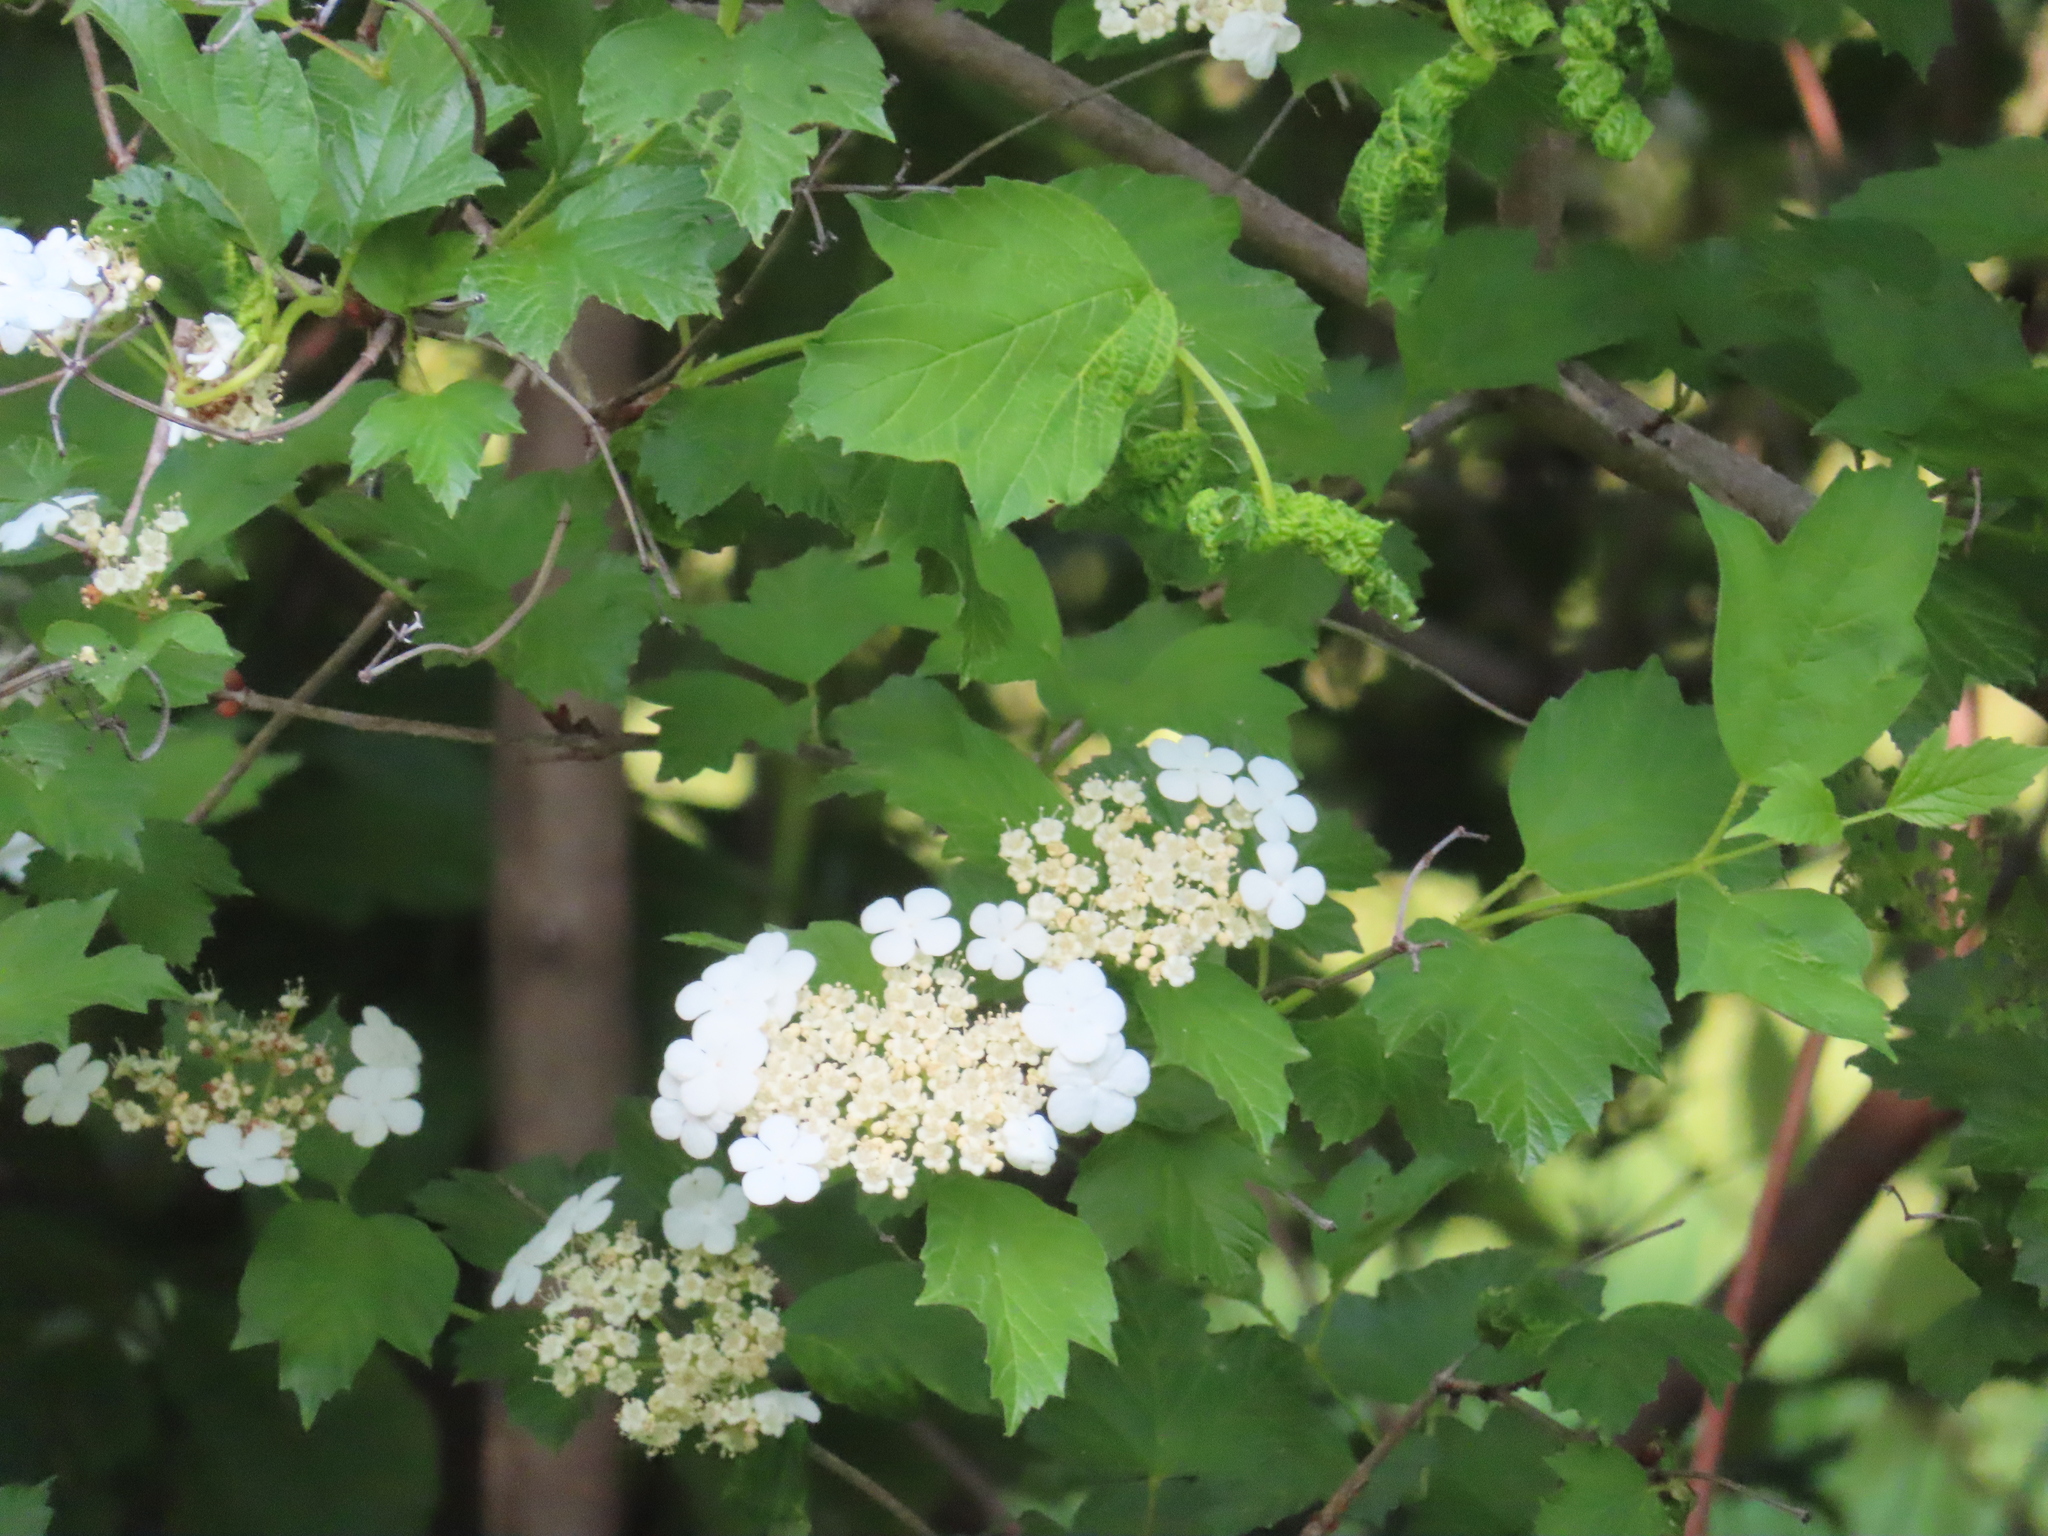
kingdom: Plantae
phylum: Tracheophyta
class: Magnoliopsida
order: Dipsacales
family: Viburnaceae
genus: Viburnum
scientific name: Viburnum opulus
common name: Guelder-rose
